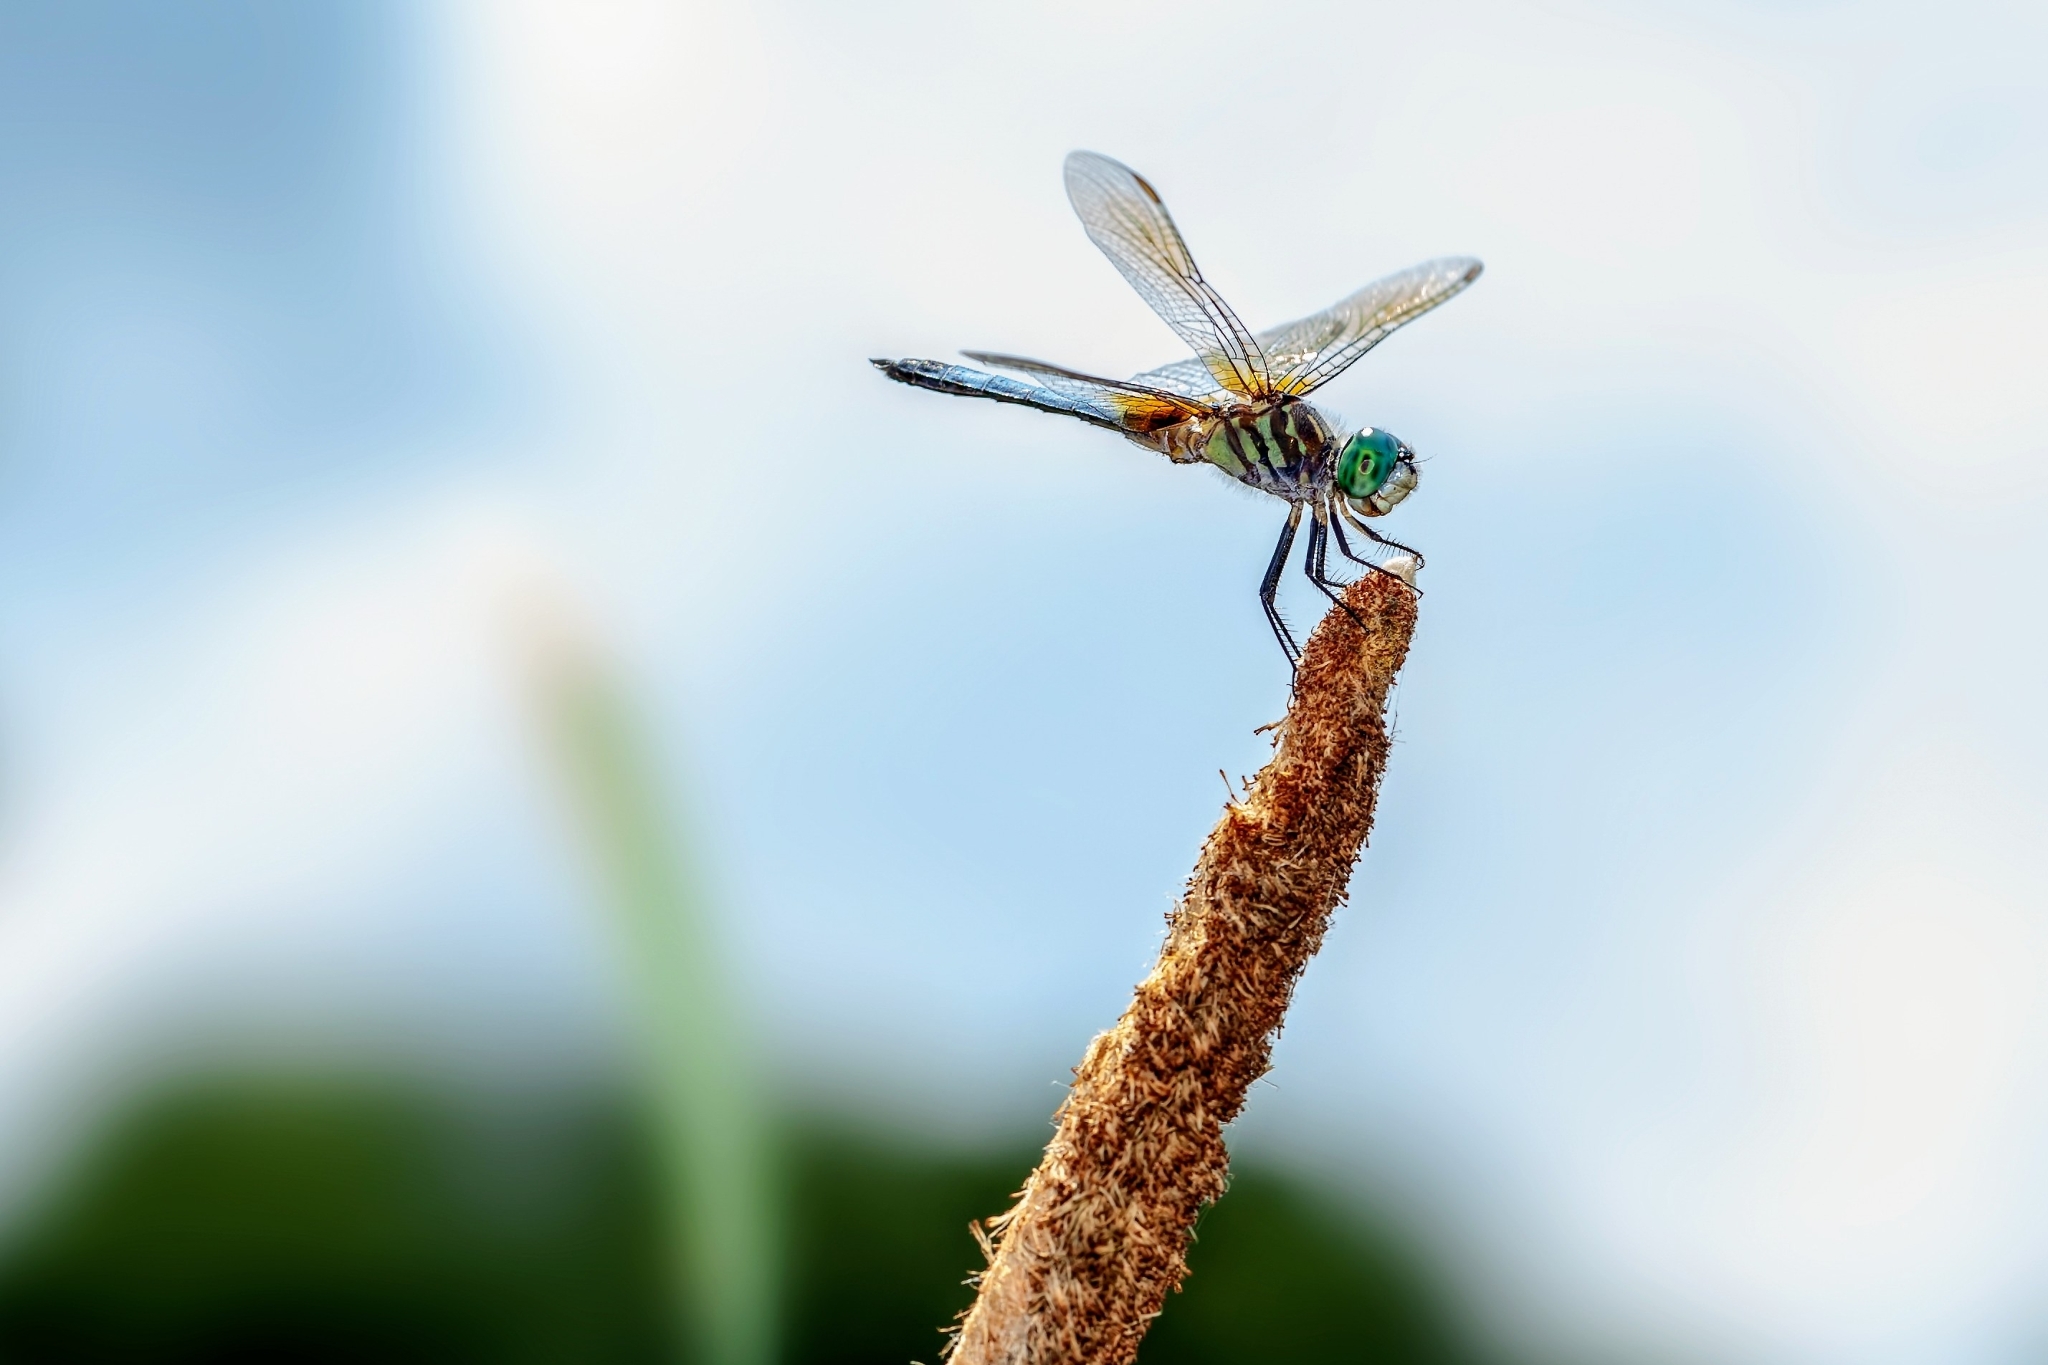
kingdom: Animalia
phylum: Arthropoda
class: Insecta
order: Odonata
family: Libellulidae
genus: Pachydiplax
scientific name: Pachydiplax longipennis
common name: Blue dasher
